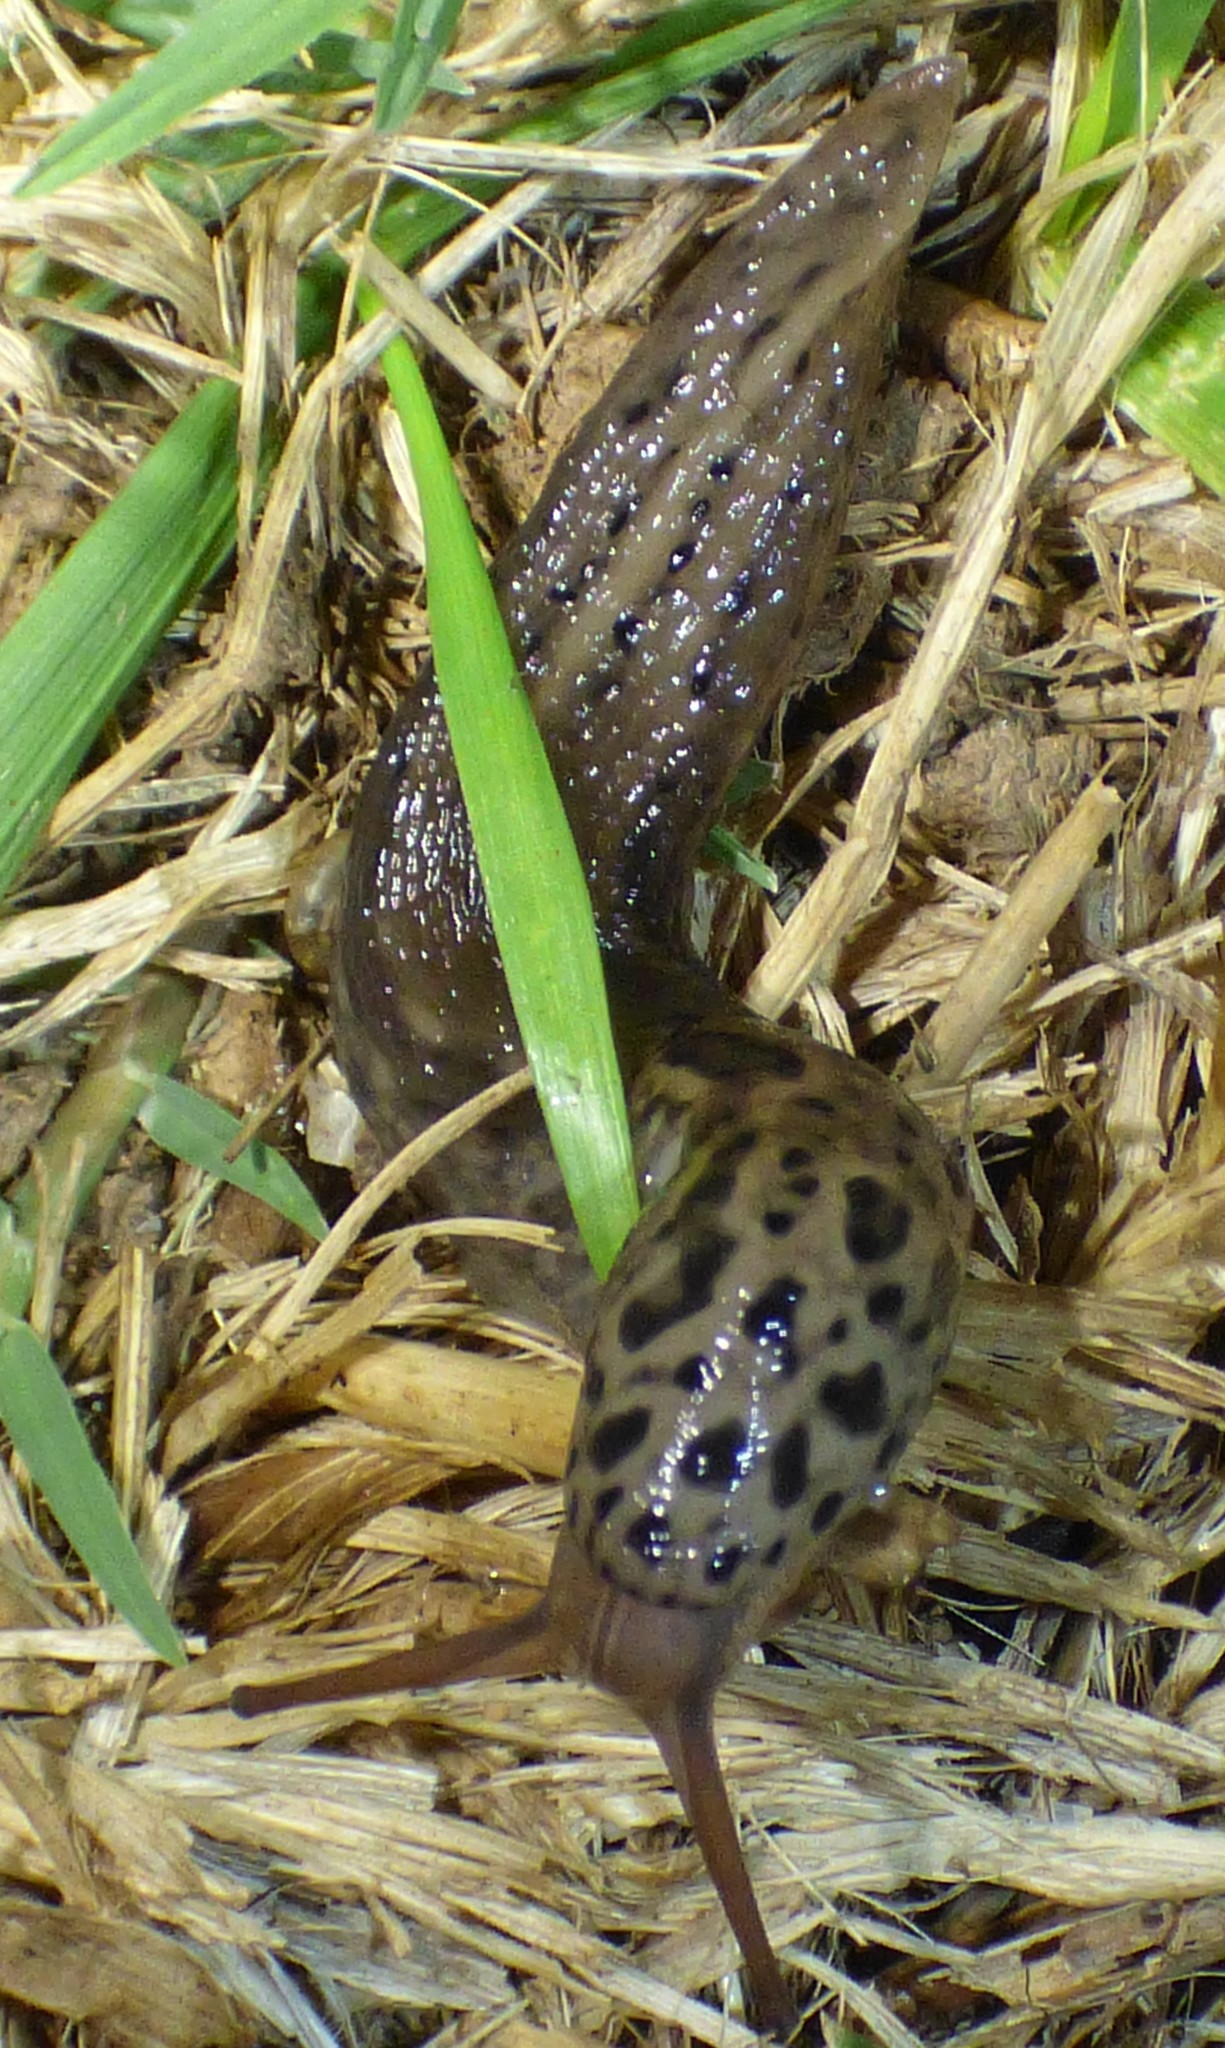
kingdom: Animalia
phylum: Mollusca
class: Gastropoda
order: Stylommatophora
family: Limacidae
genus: Limax
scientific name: Limax maximus
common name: Great grey slug
